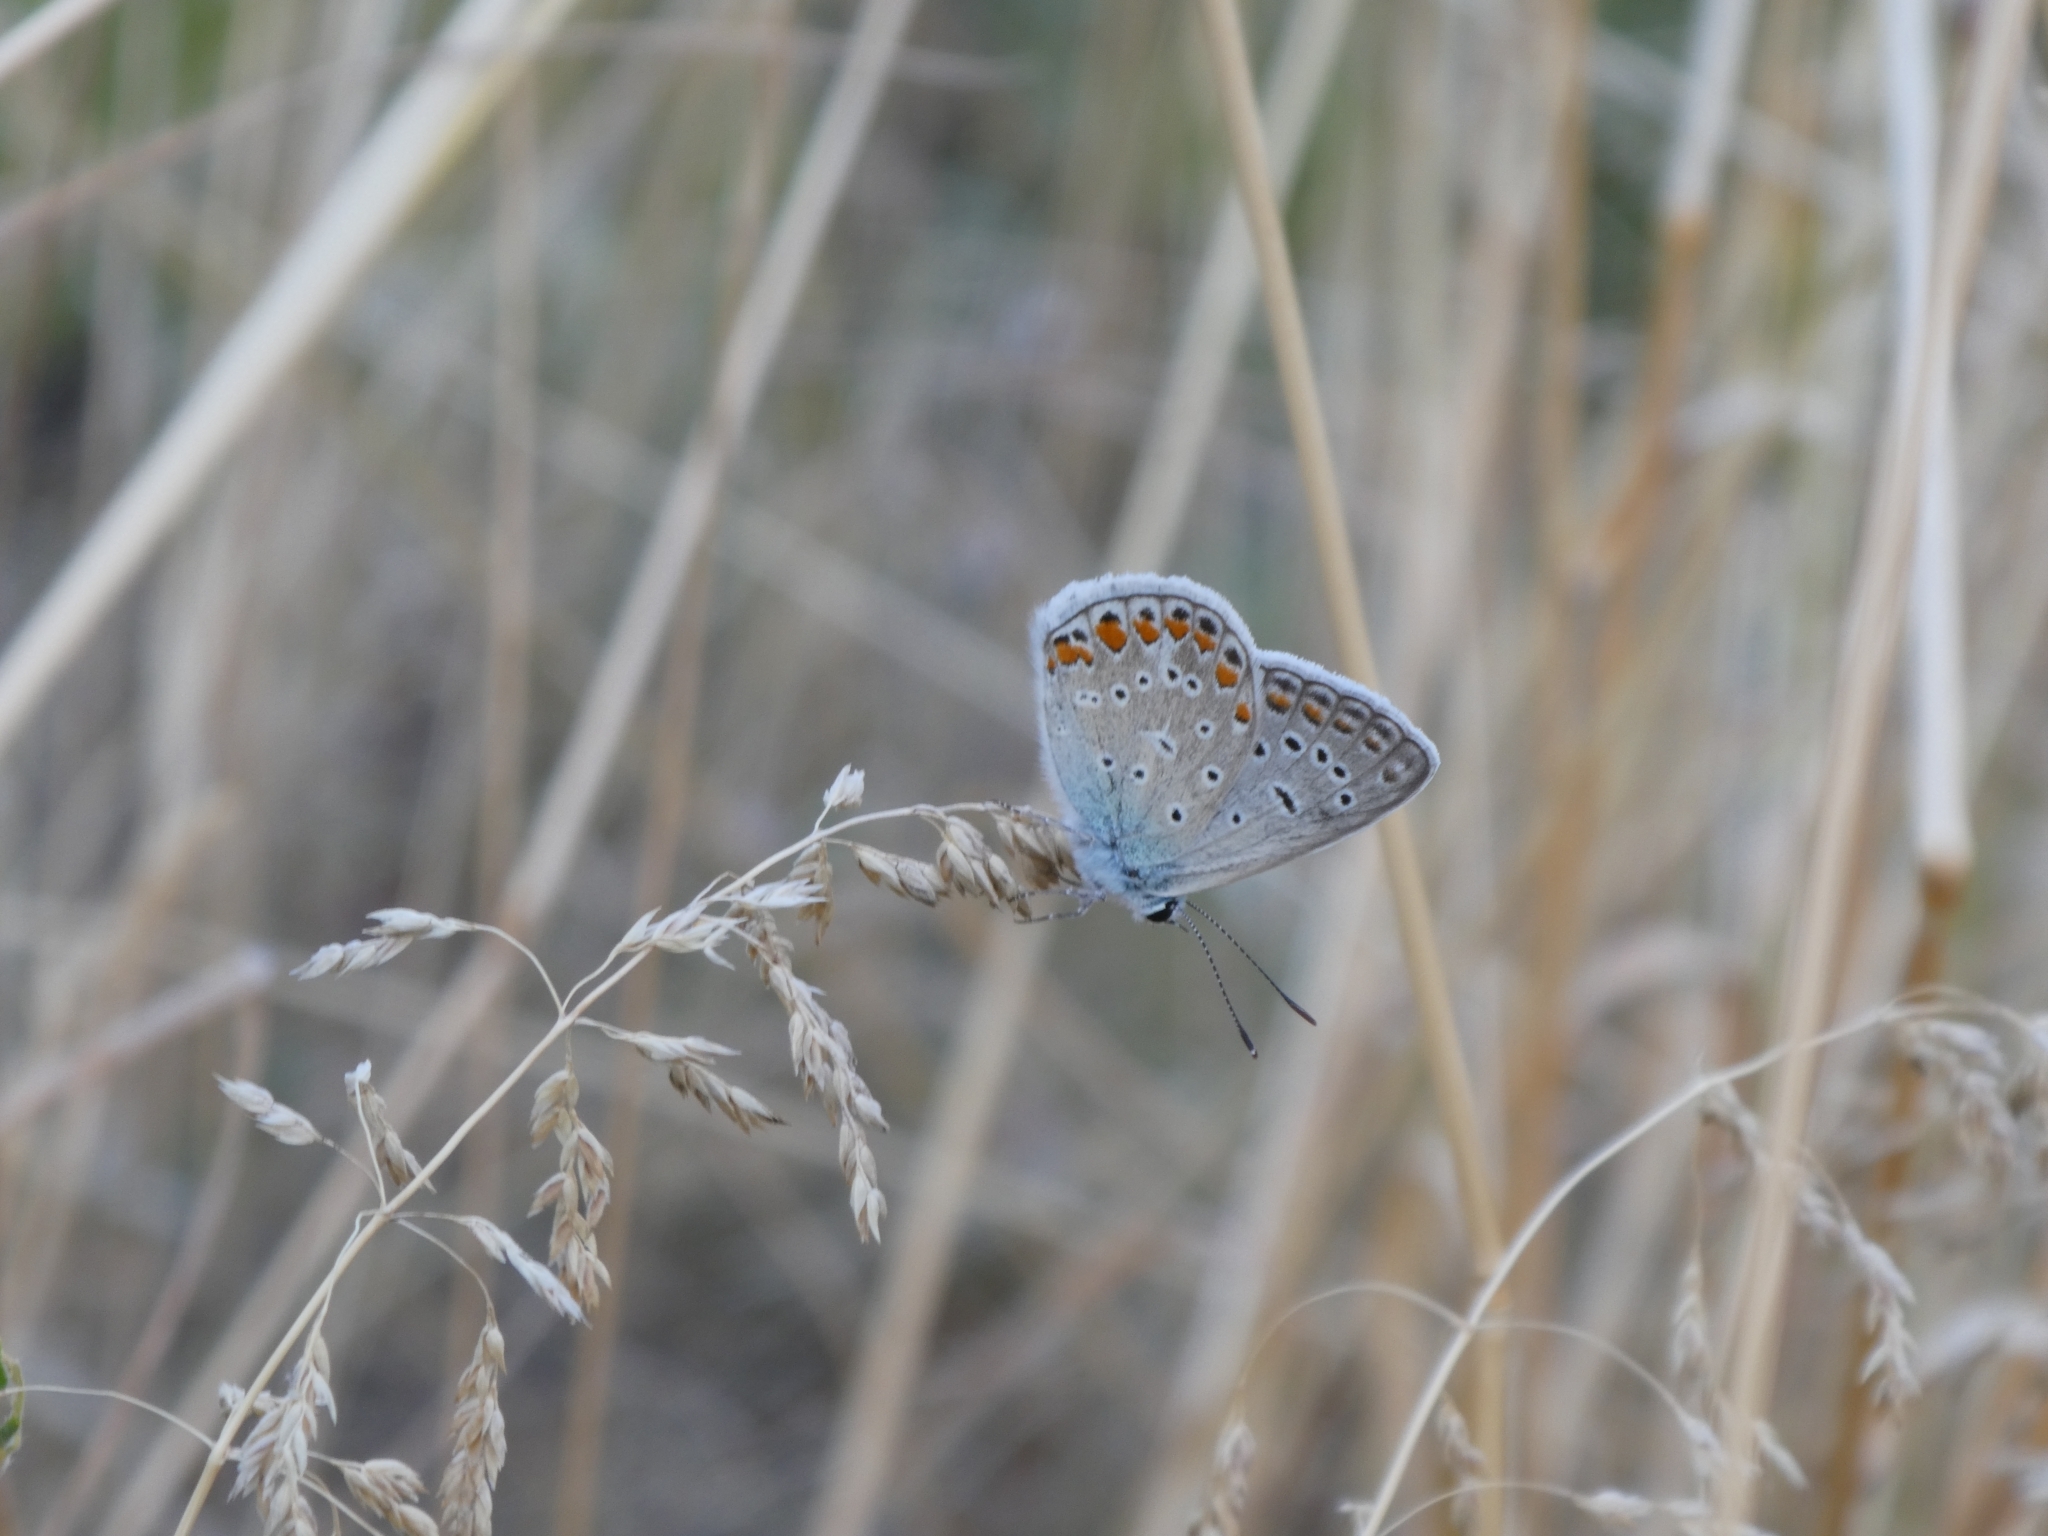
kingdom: Animalia
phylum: Arthropoda
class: Insecta
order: Lepidoptera
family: Lycaenidae
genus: Polyommatus
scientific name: Polyommatus icarus
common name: Common blue
